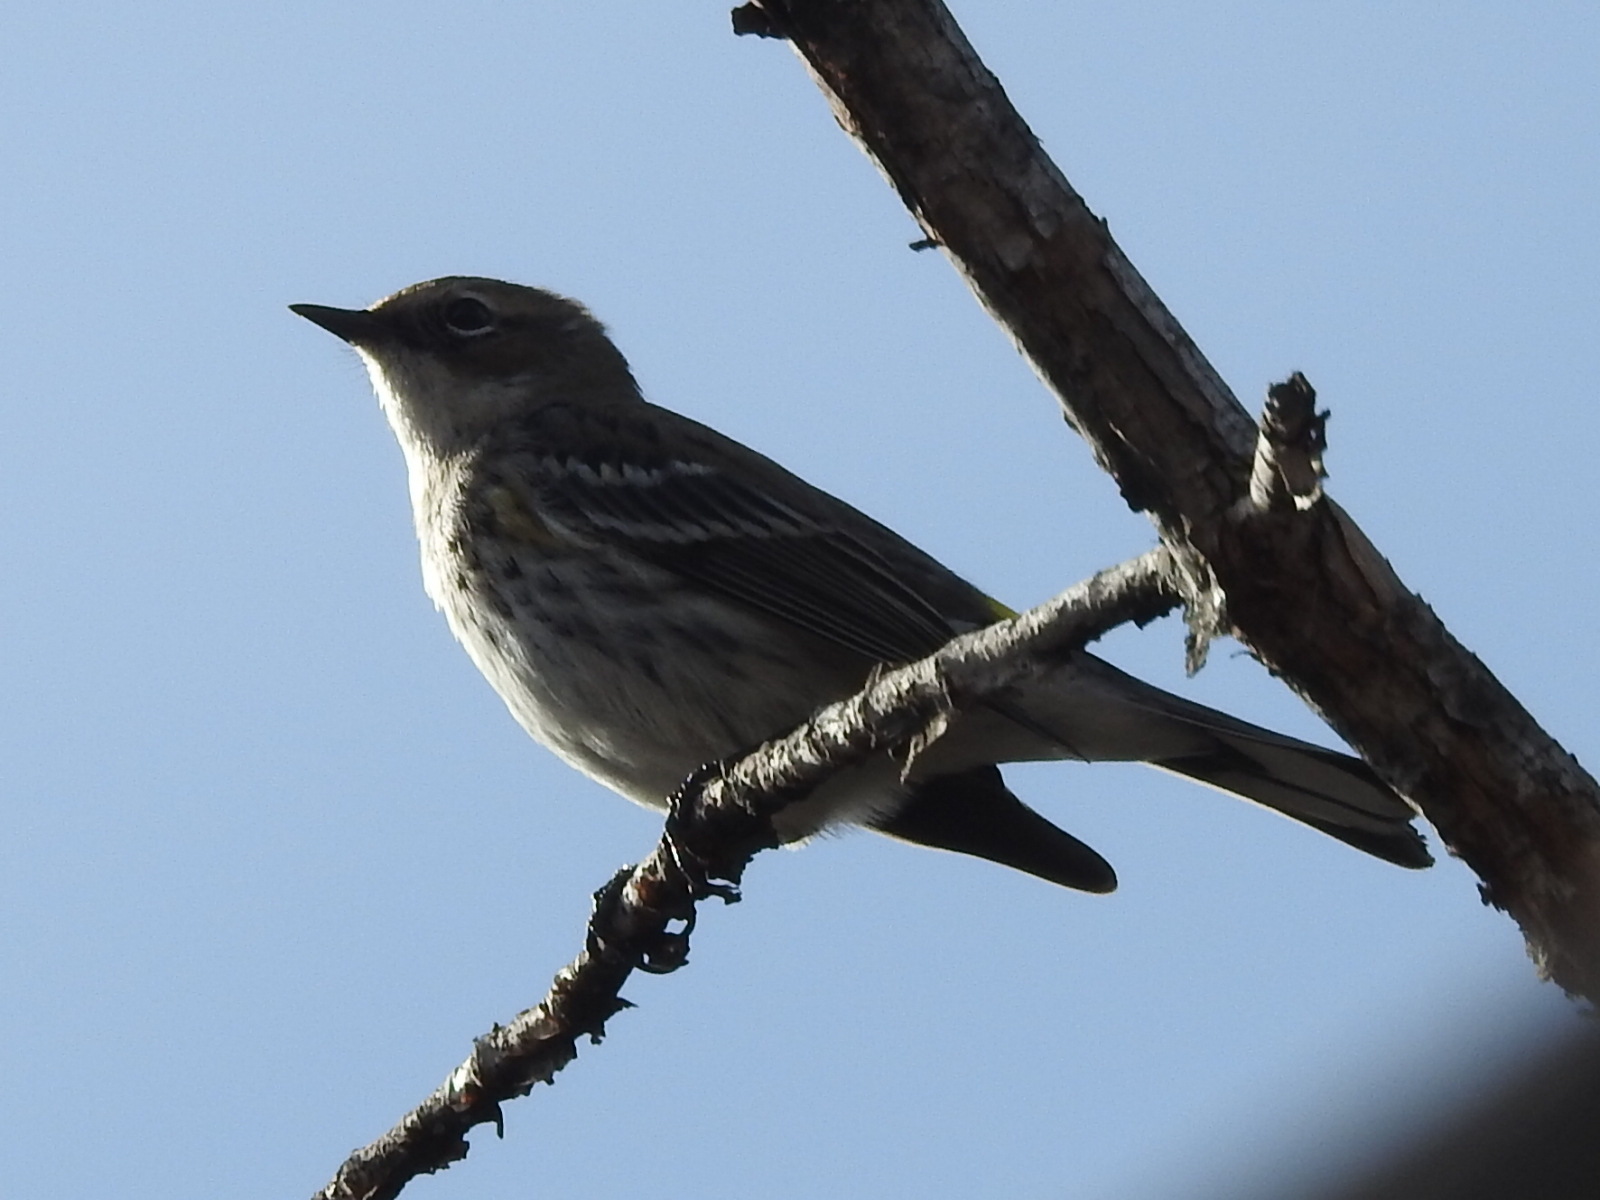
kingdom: Animalia
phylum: Chordata
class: Aves
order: Passeriformes
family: Parulidae
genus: Setophaga
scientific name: Setophaga coronata
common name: Myrtle warbler
